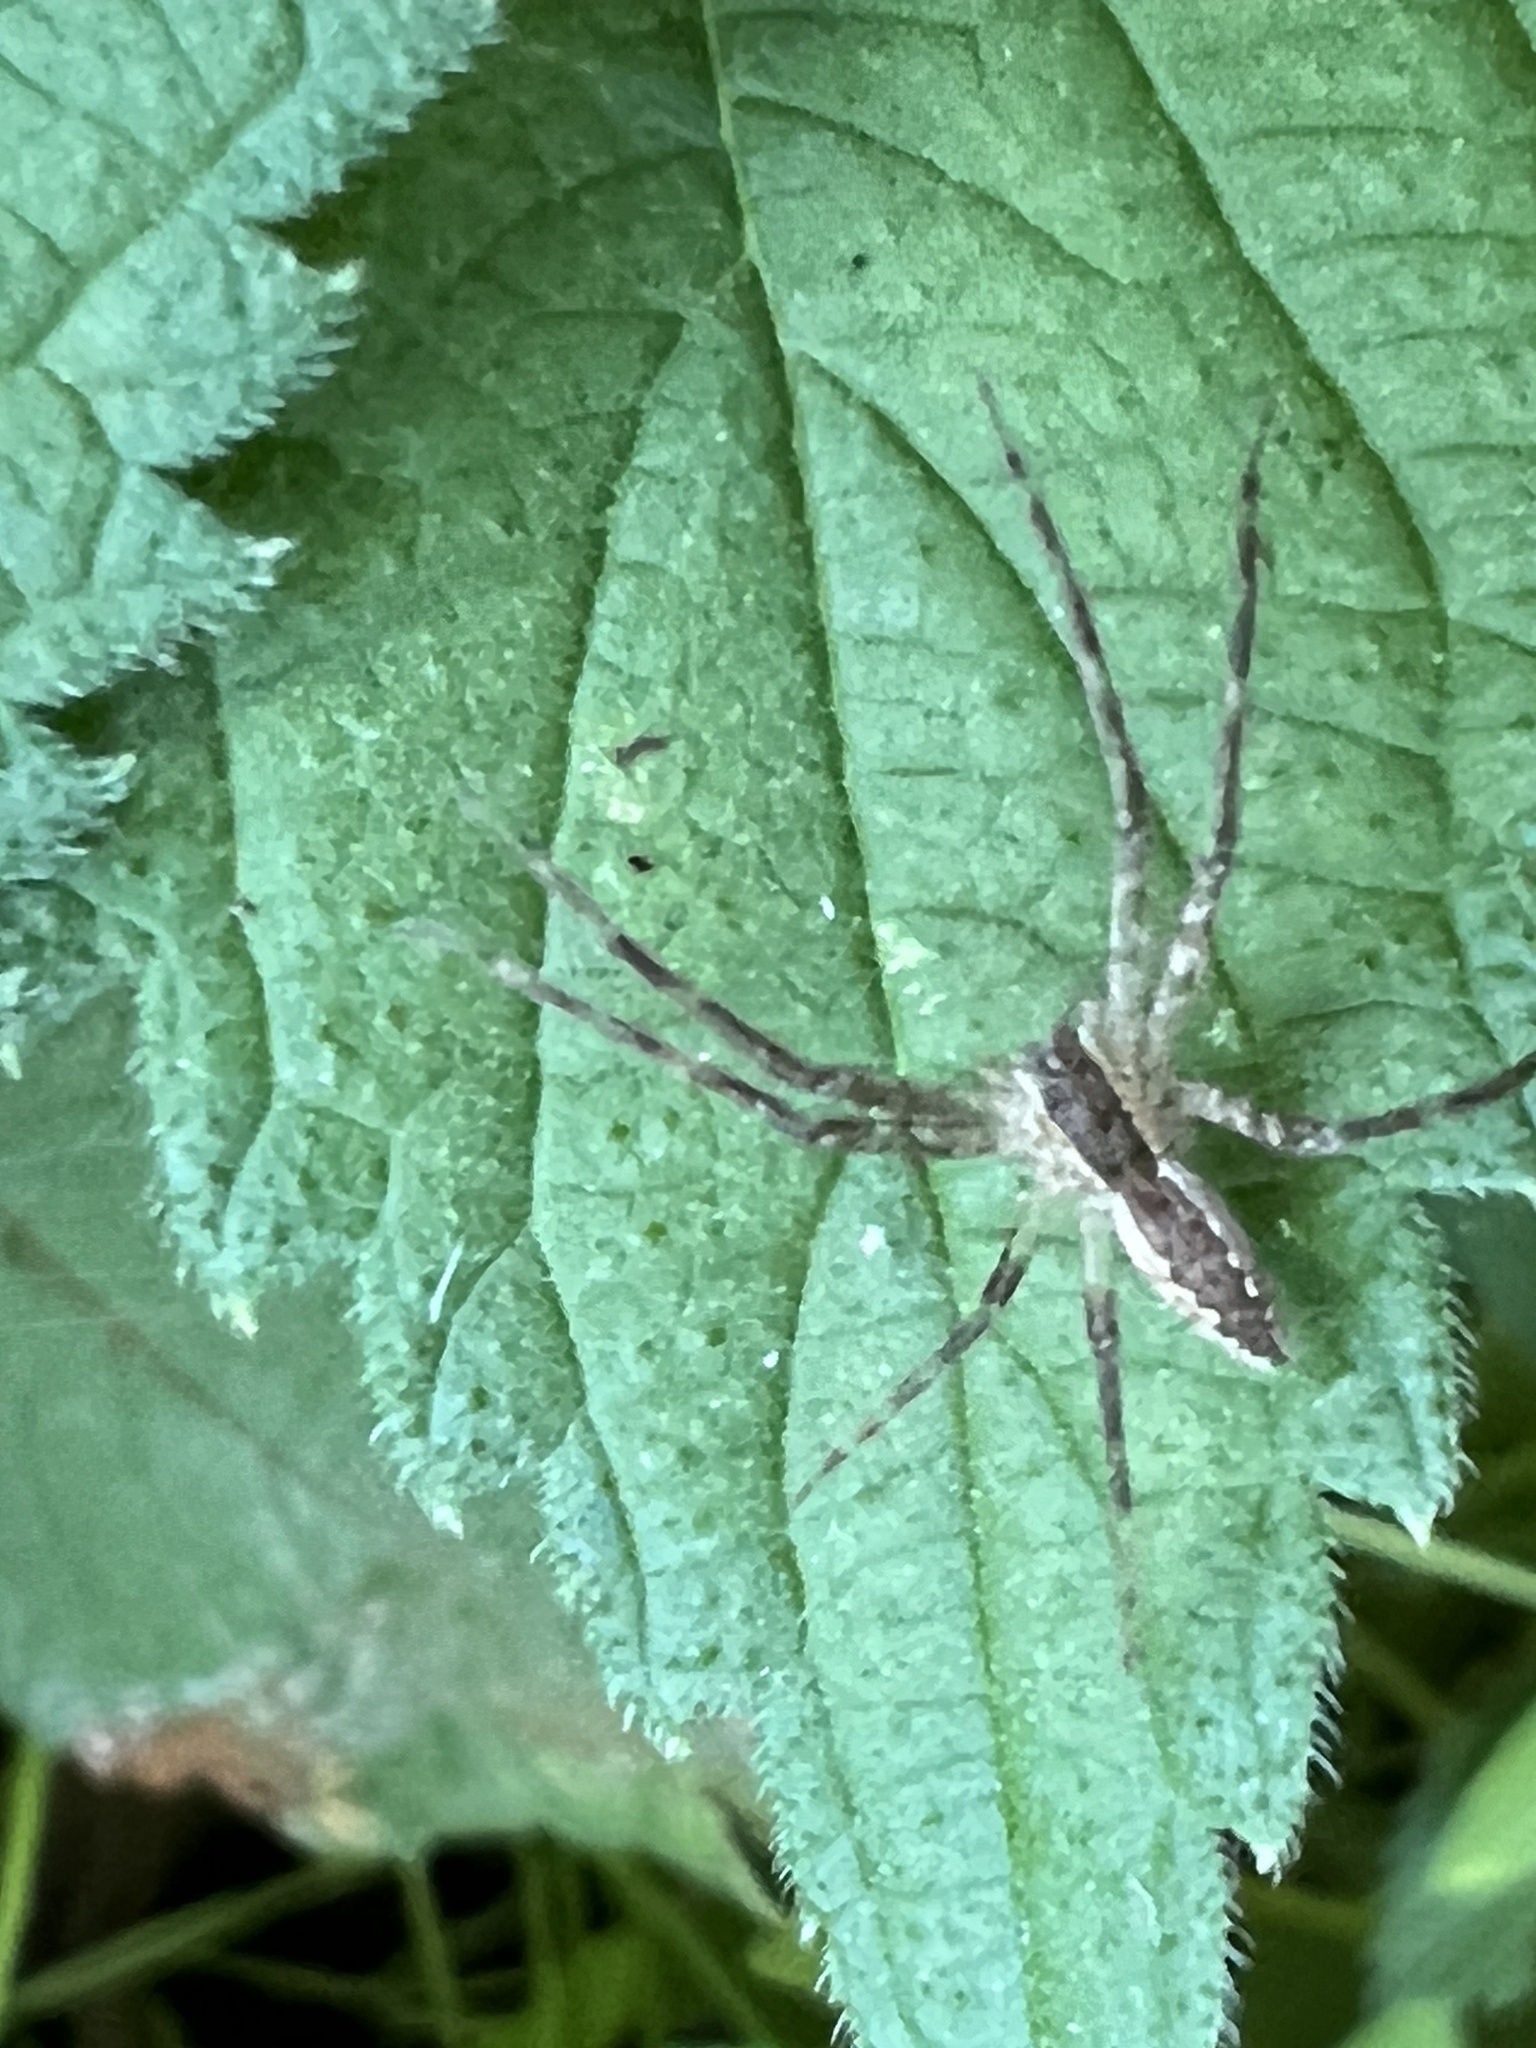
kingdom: Animalia
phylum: Arthropoda
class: Arachnida
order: Araneae
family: Pisauridae
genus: Pisaurina
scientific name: Pisaurina mira
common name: American nursery web spider
